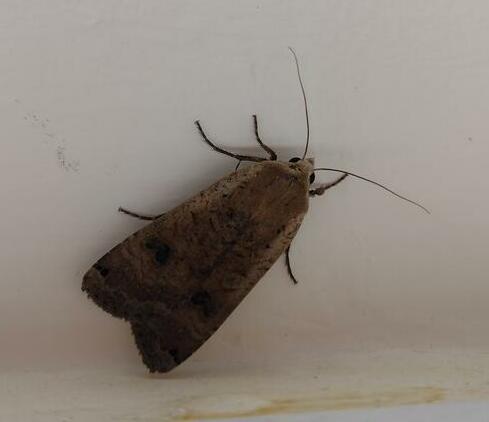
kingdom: Animalia
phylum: Arthropoda
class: Insecta
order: Lepidoptera
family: Noctuidae
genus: Noctua
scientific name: Noctua pronuba
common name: Large yellow underwing
